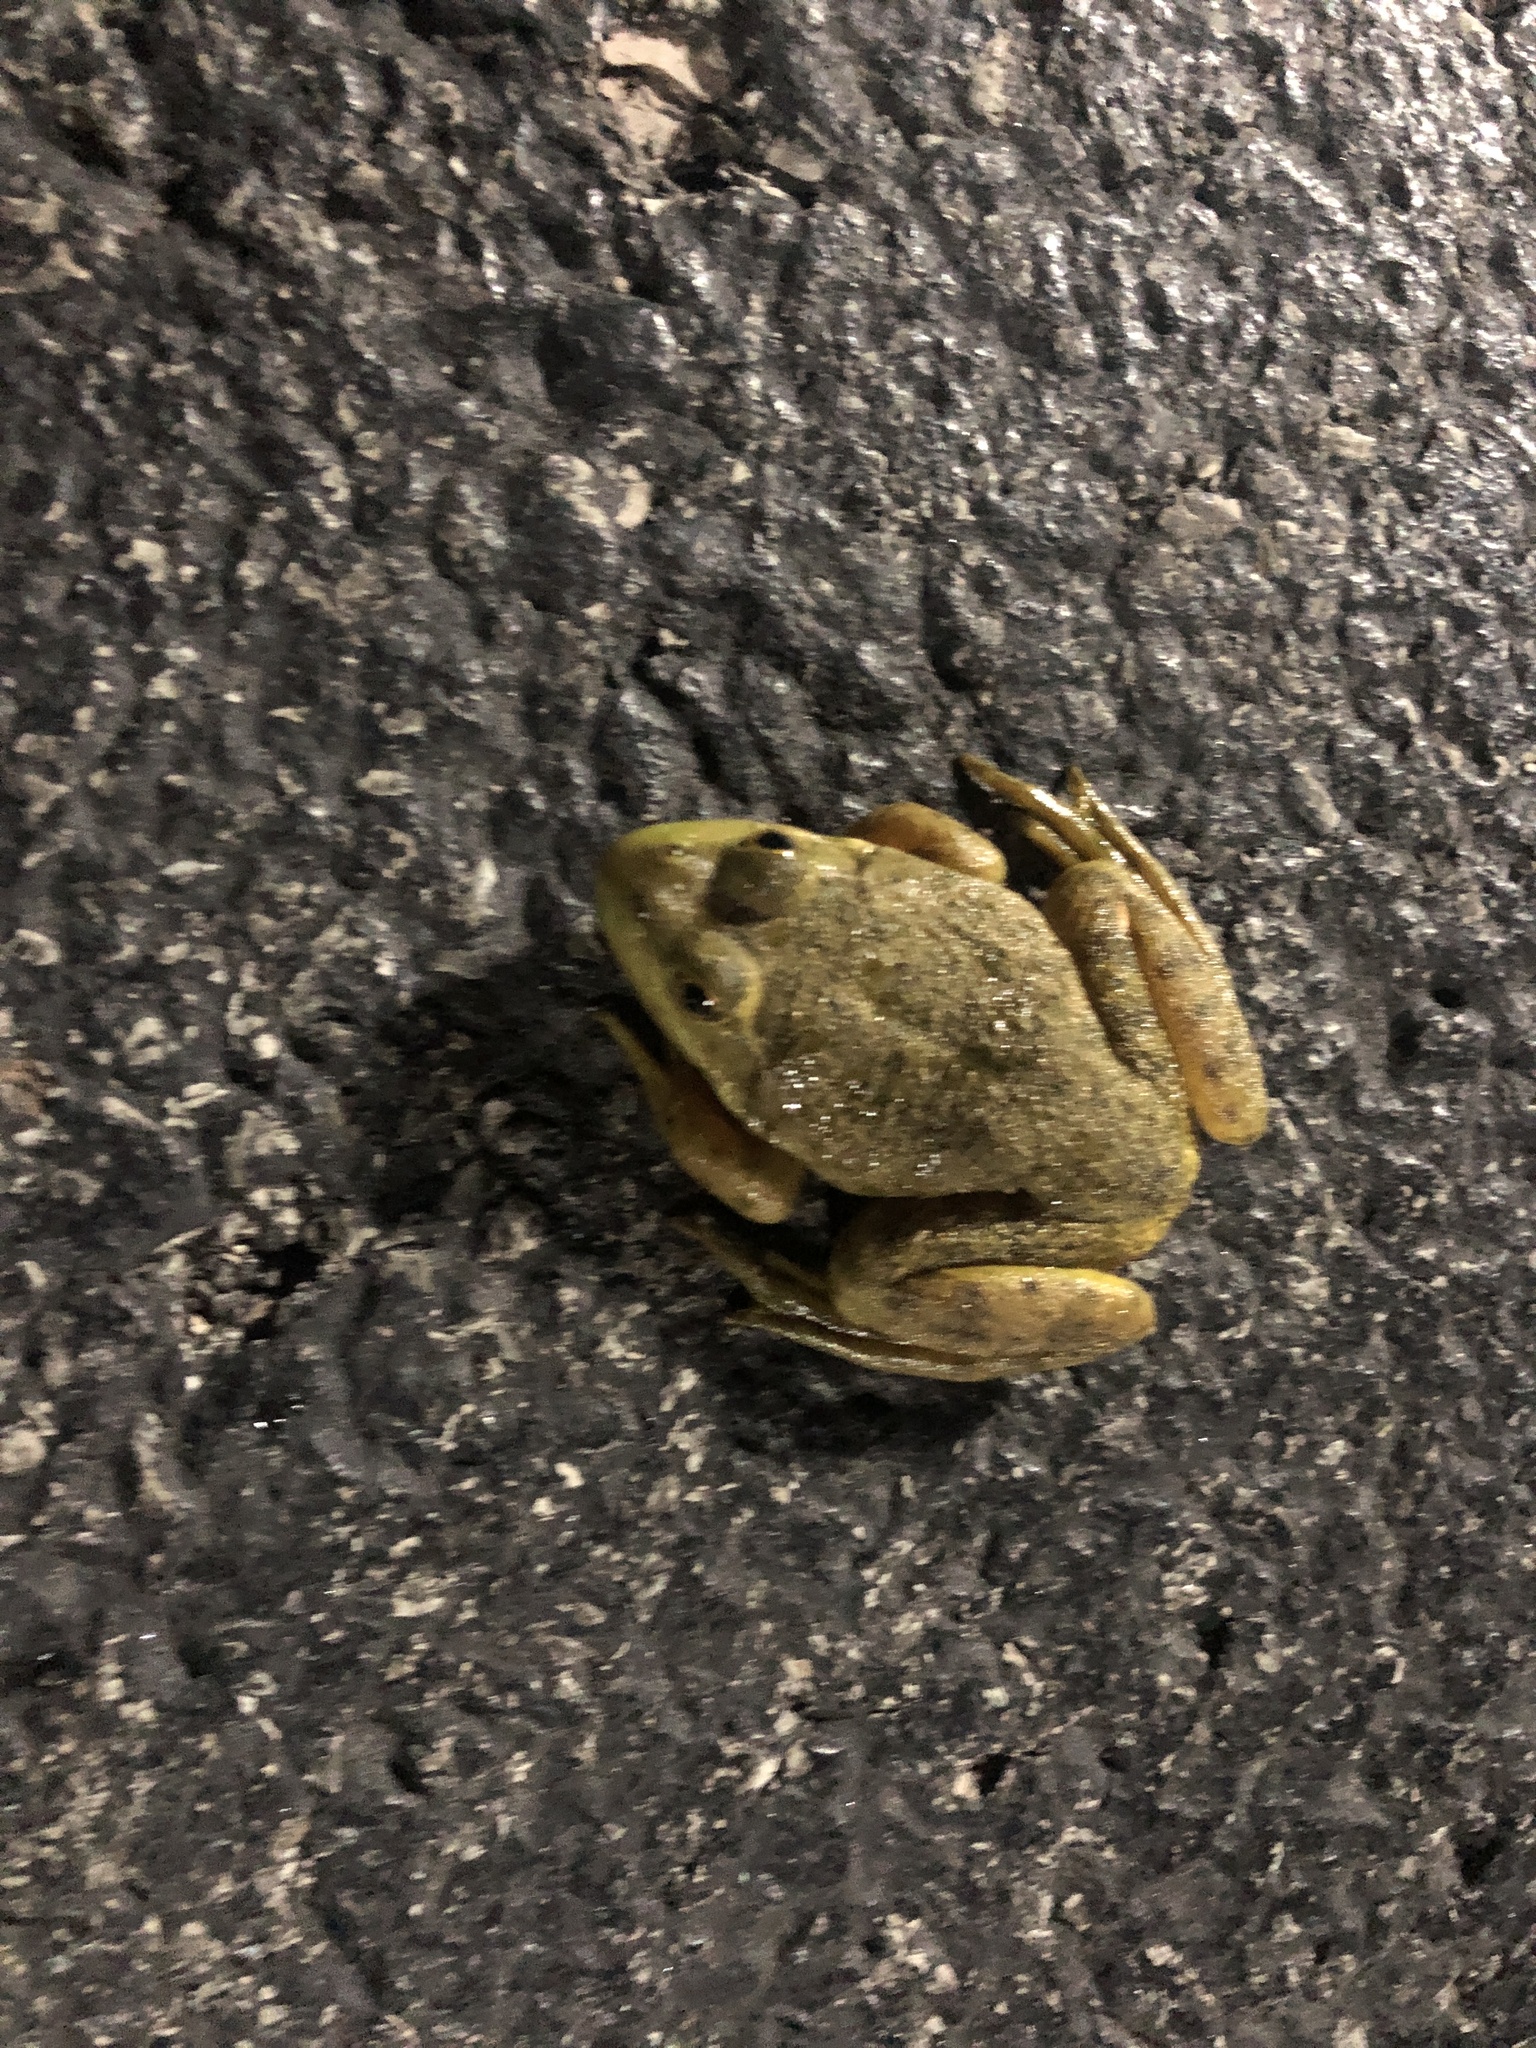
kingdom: Animalia
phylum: Chordata
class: Amphibia
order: Anura
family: Ranidae
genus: Lithobates
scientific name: Lithobates catesbeianus
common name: American bullfrog
